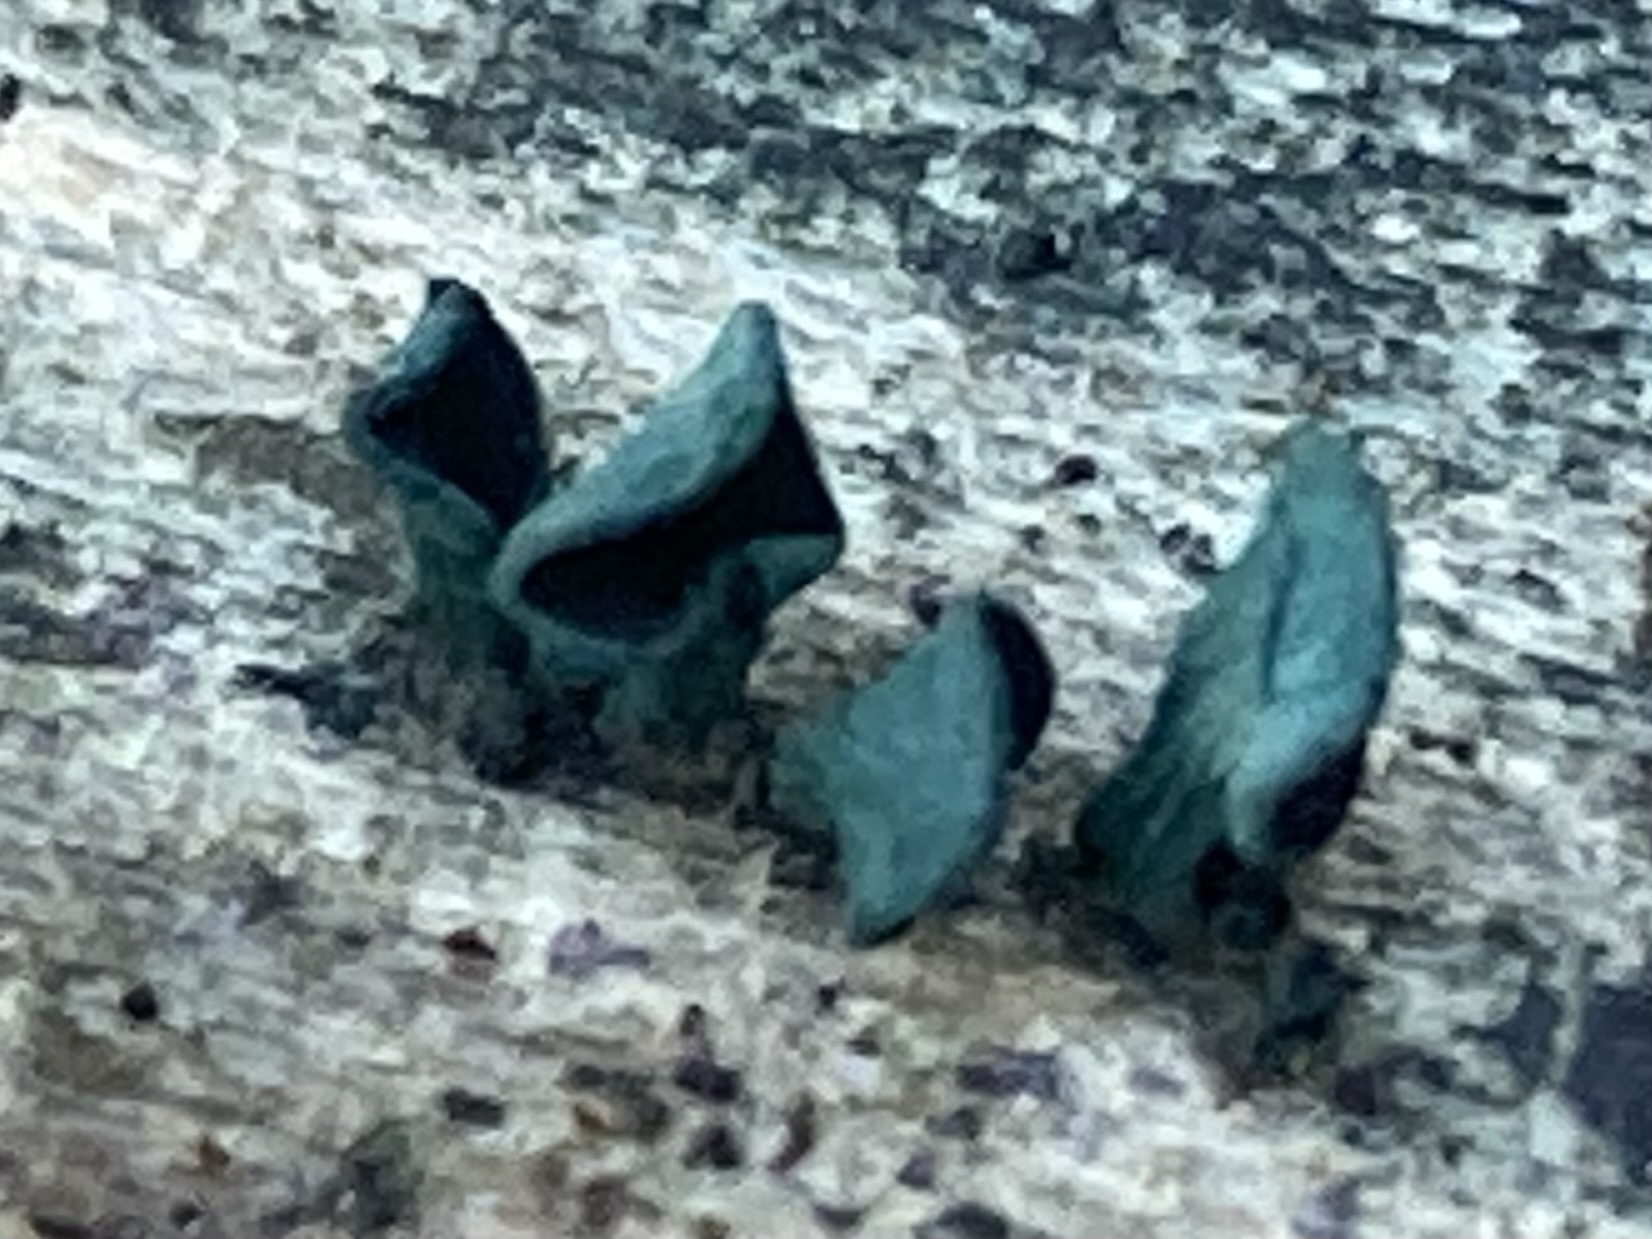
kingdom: Fungi
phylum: Ascomycota
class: Leotiomycetes
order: Helotiales
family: Chlorociboriaceae
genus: Chlorociboria
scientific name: Chlorociboria aeruginascens
